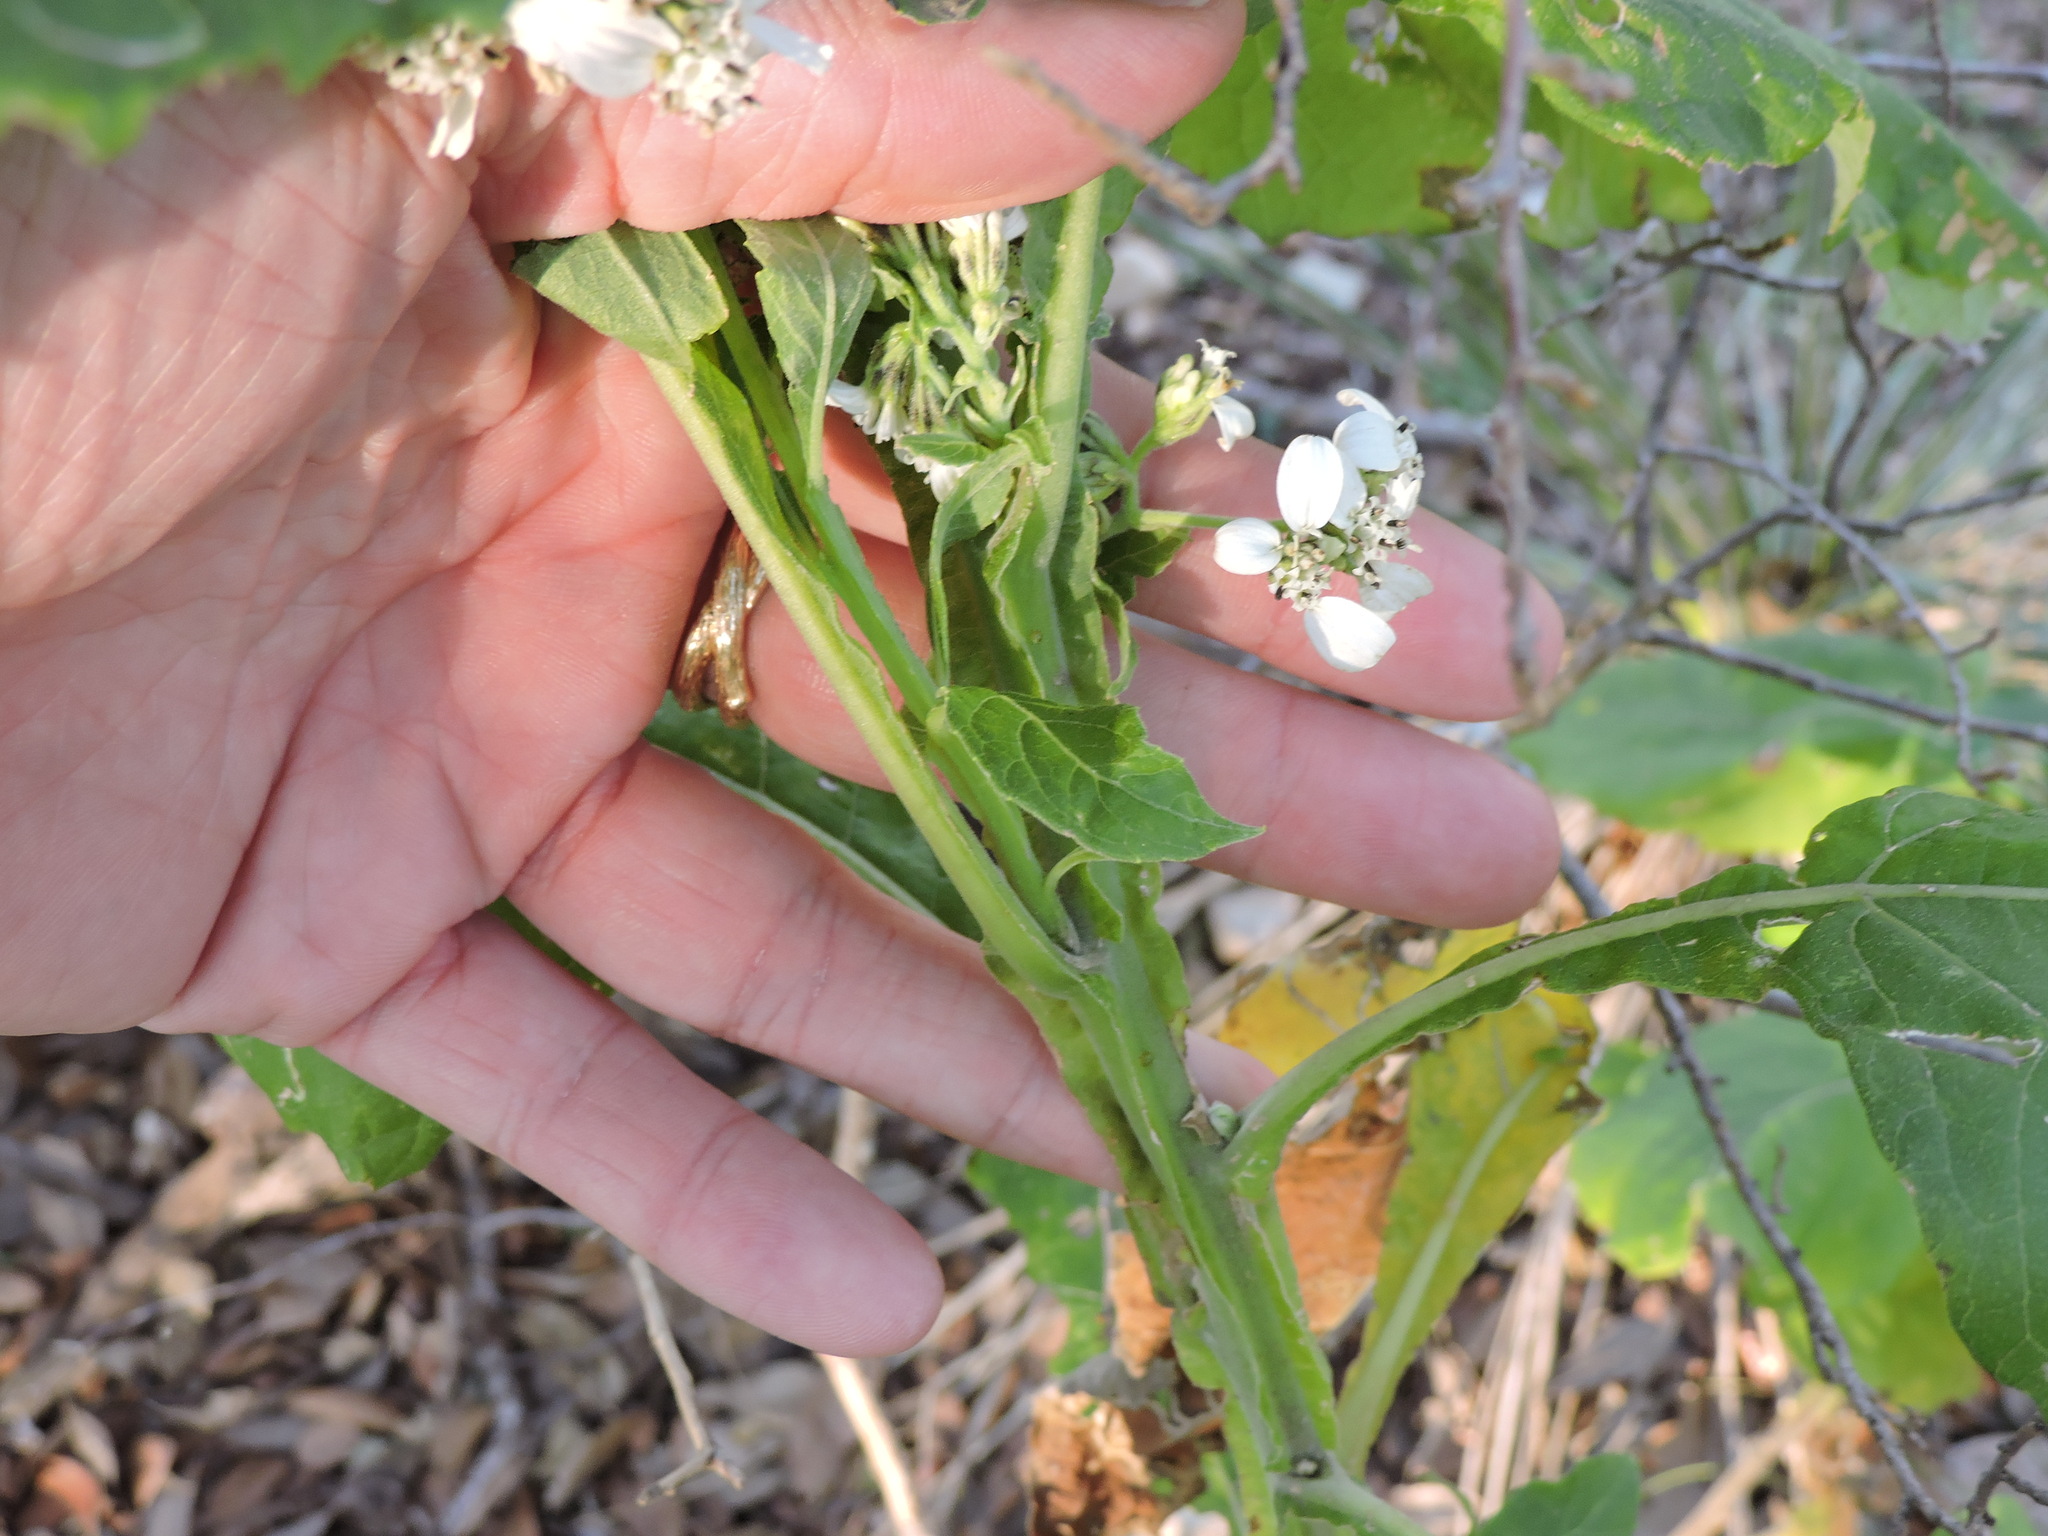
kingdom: Plantae
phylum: Tracheophyta
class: Magnoliopsida
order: Asterales
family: Asteraceae
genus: Verbesina
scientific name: Verbesina virginica
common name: Frostweed
